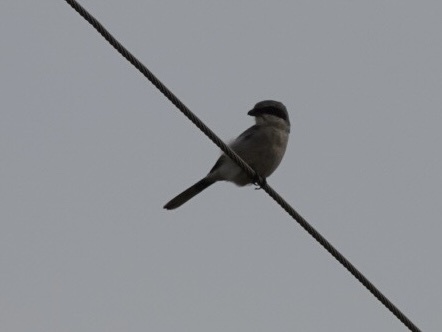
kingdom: Animalia
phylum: Chordata
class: Aves
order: Passeriformes
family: Laniidae
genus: Lanius
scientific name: Lanius ludovicianus
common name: Loggerhead shrike
